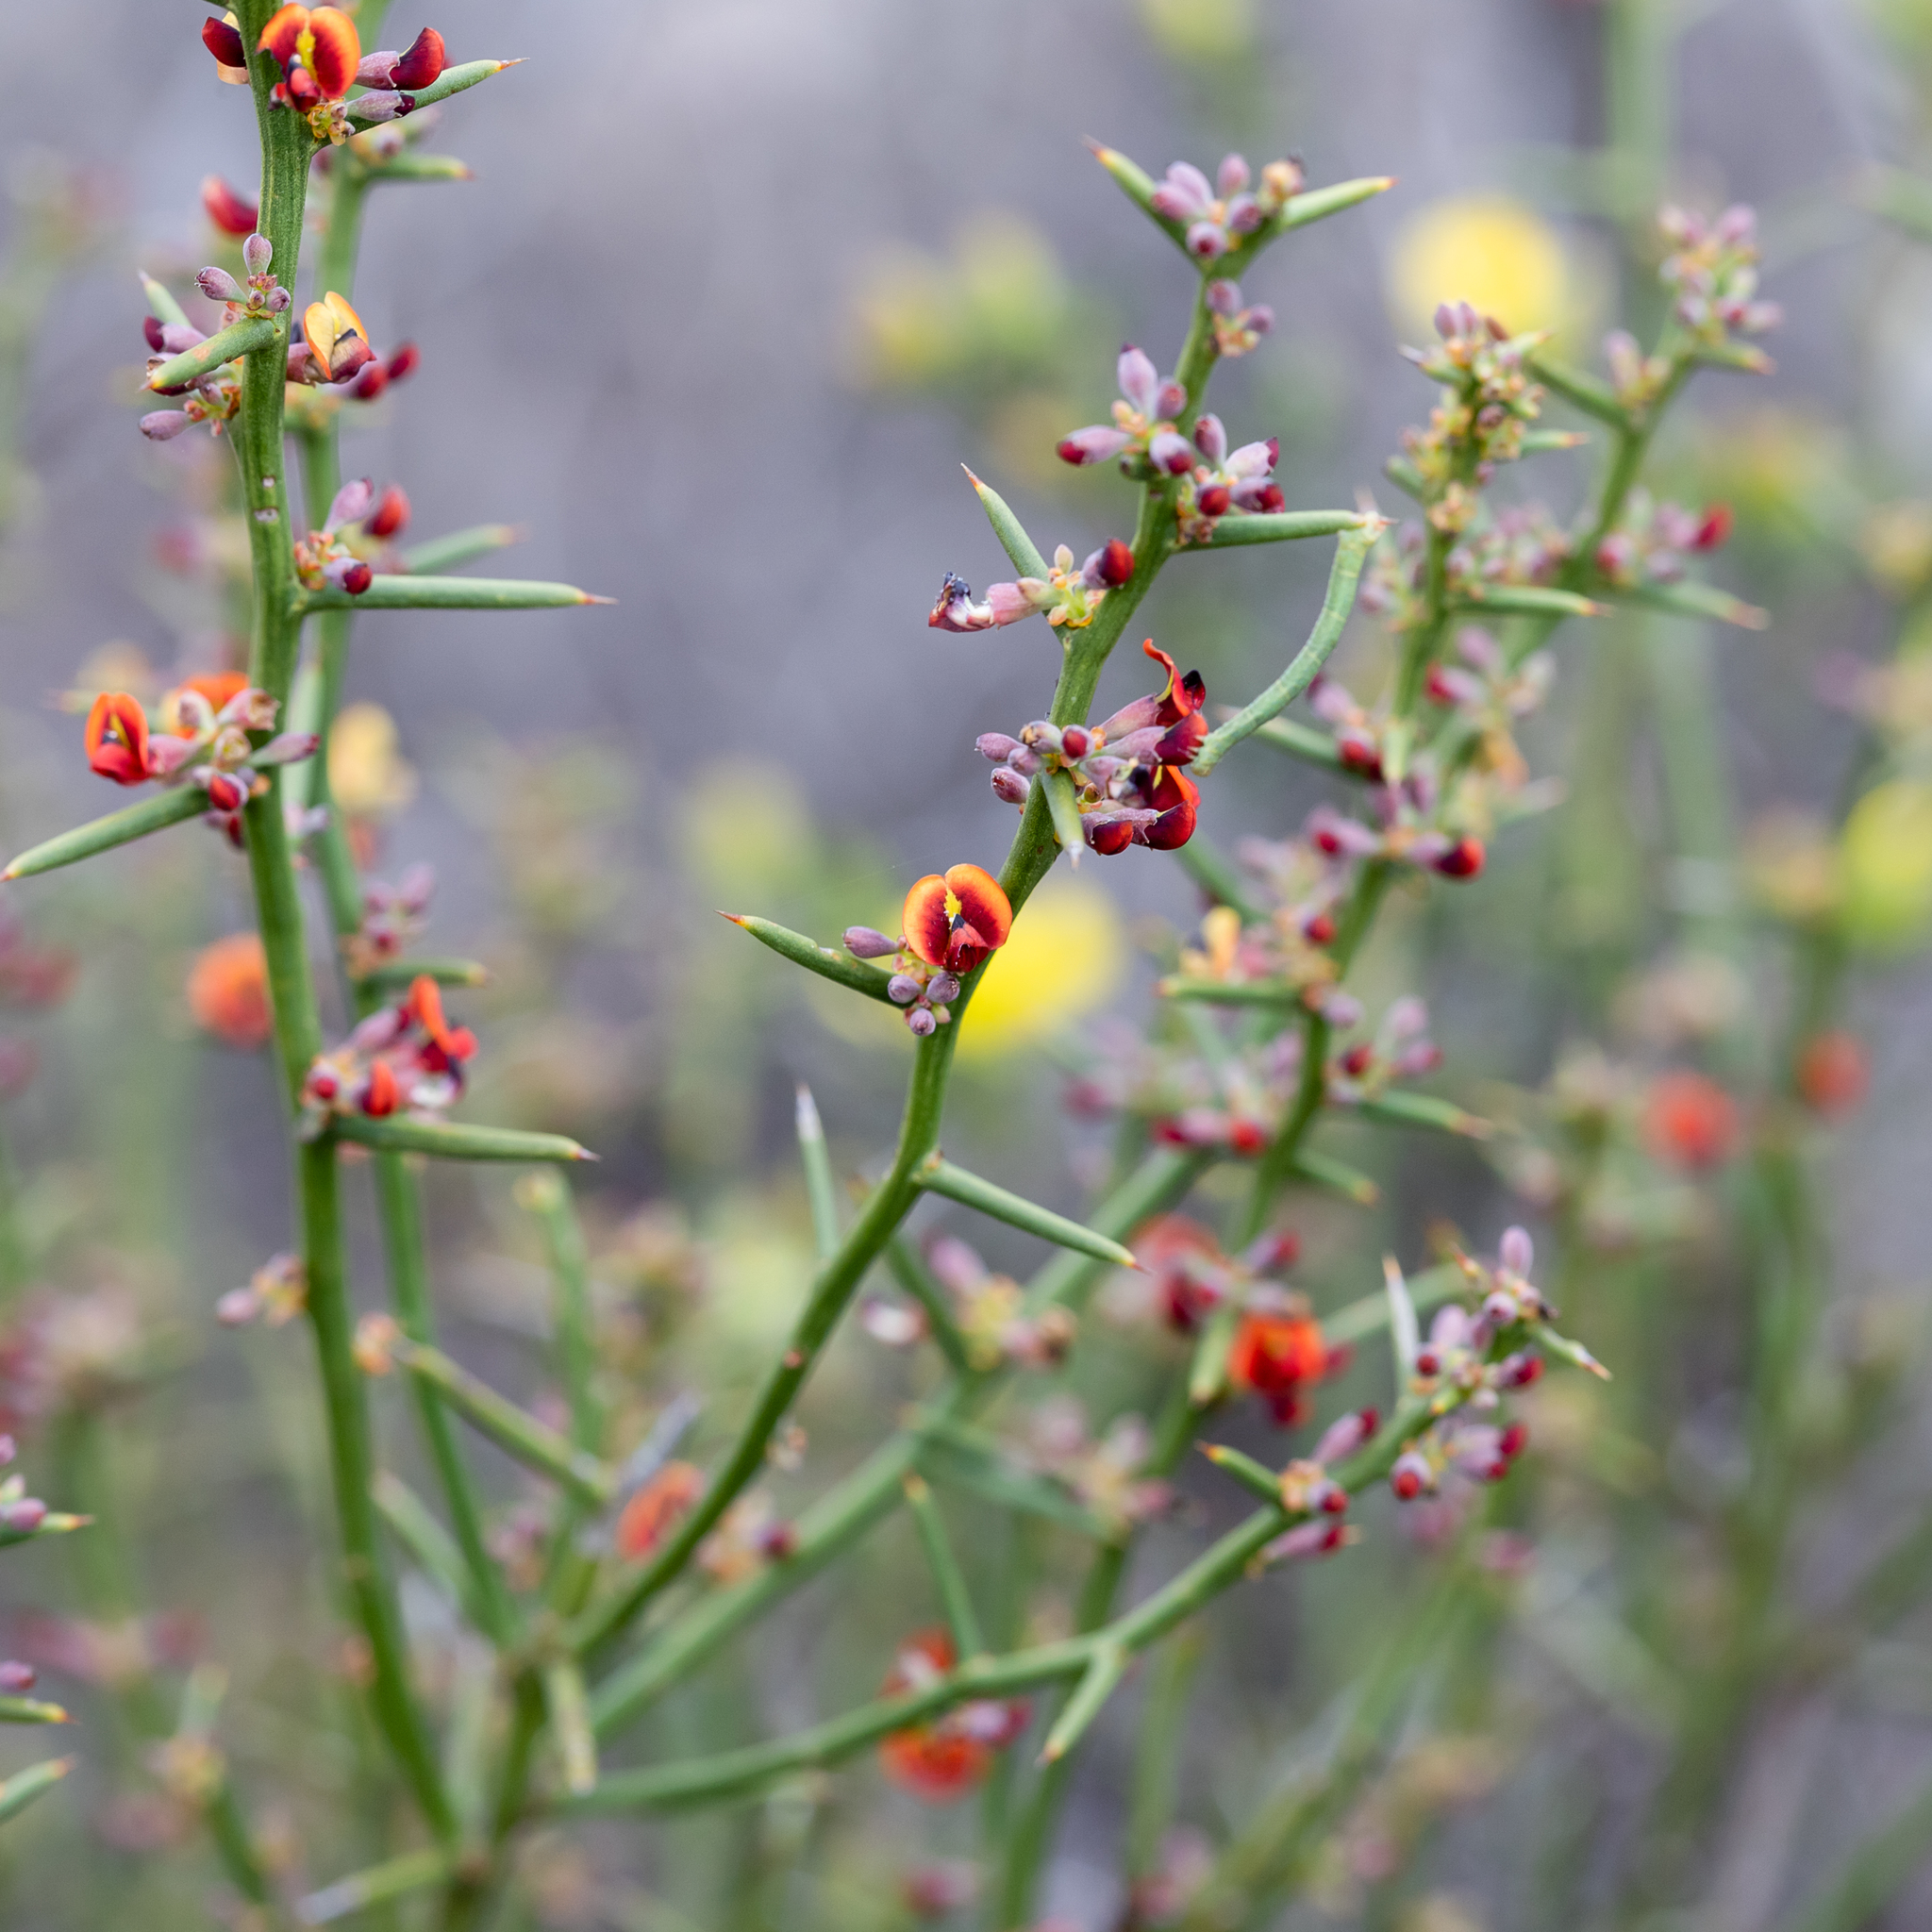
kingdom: Plantae
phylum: Tracheophyta
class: Magnoliopsida
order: Fabales
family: Fabaceae
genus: Daviesia
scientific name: Daviesia devito
